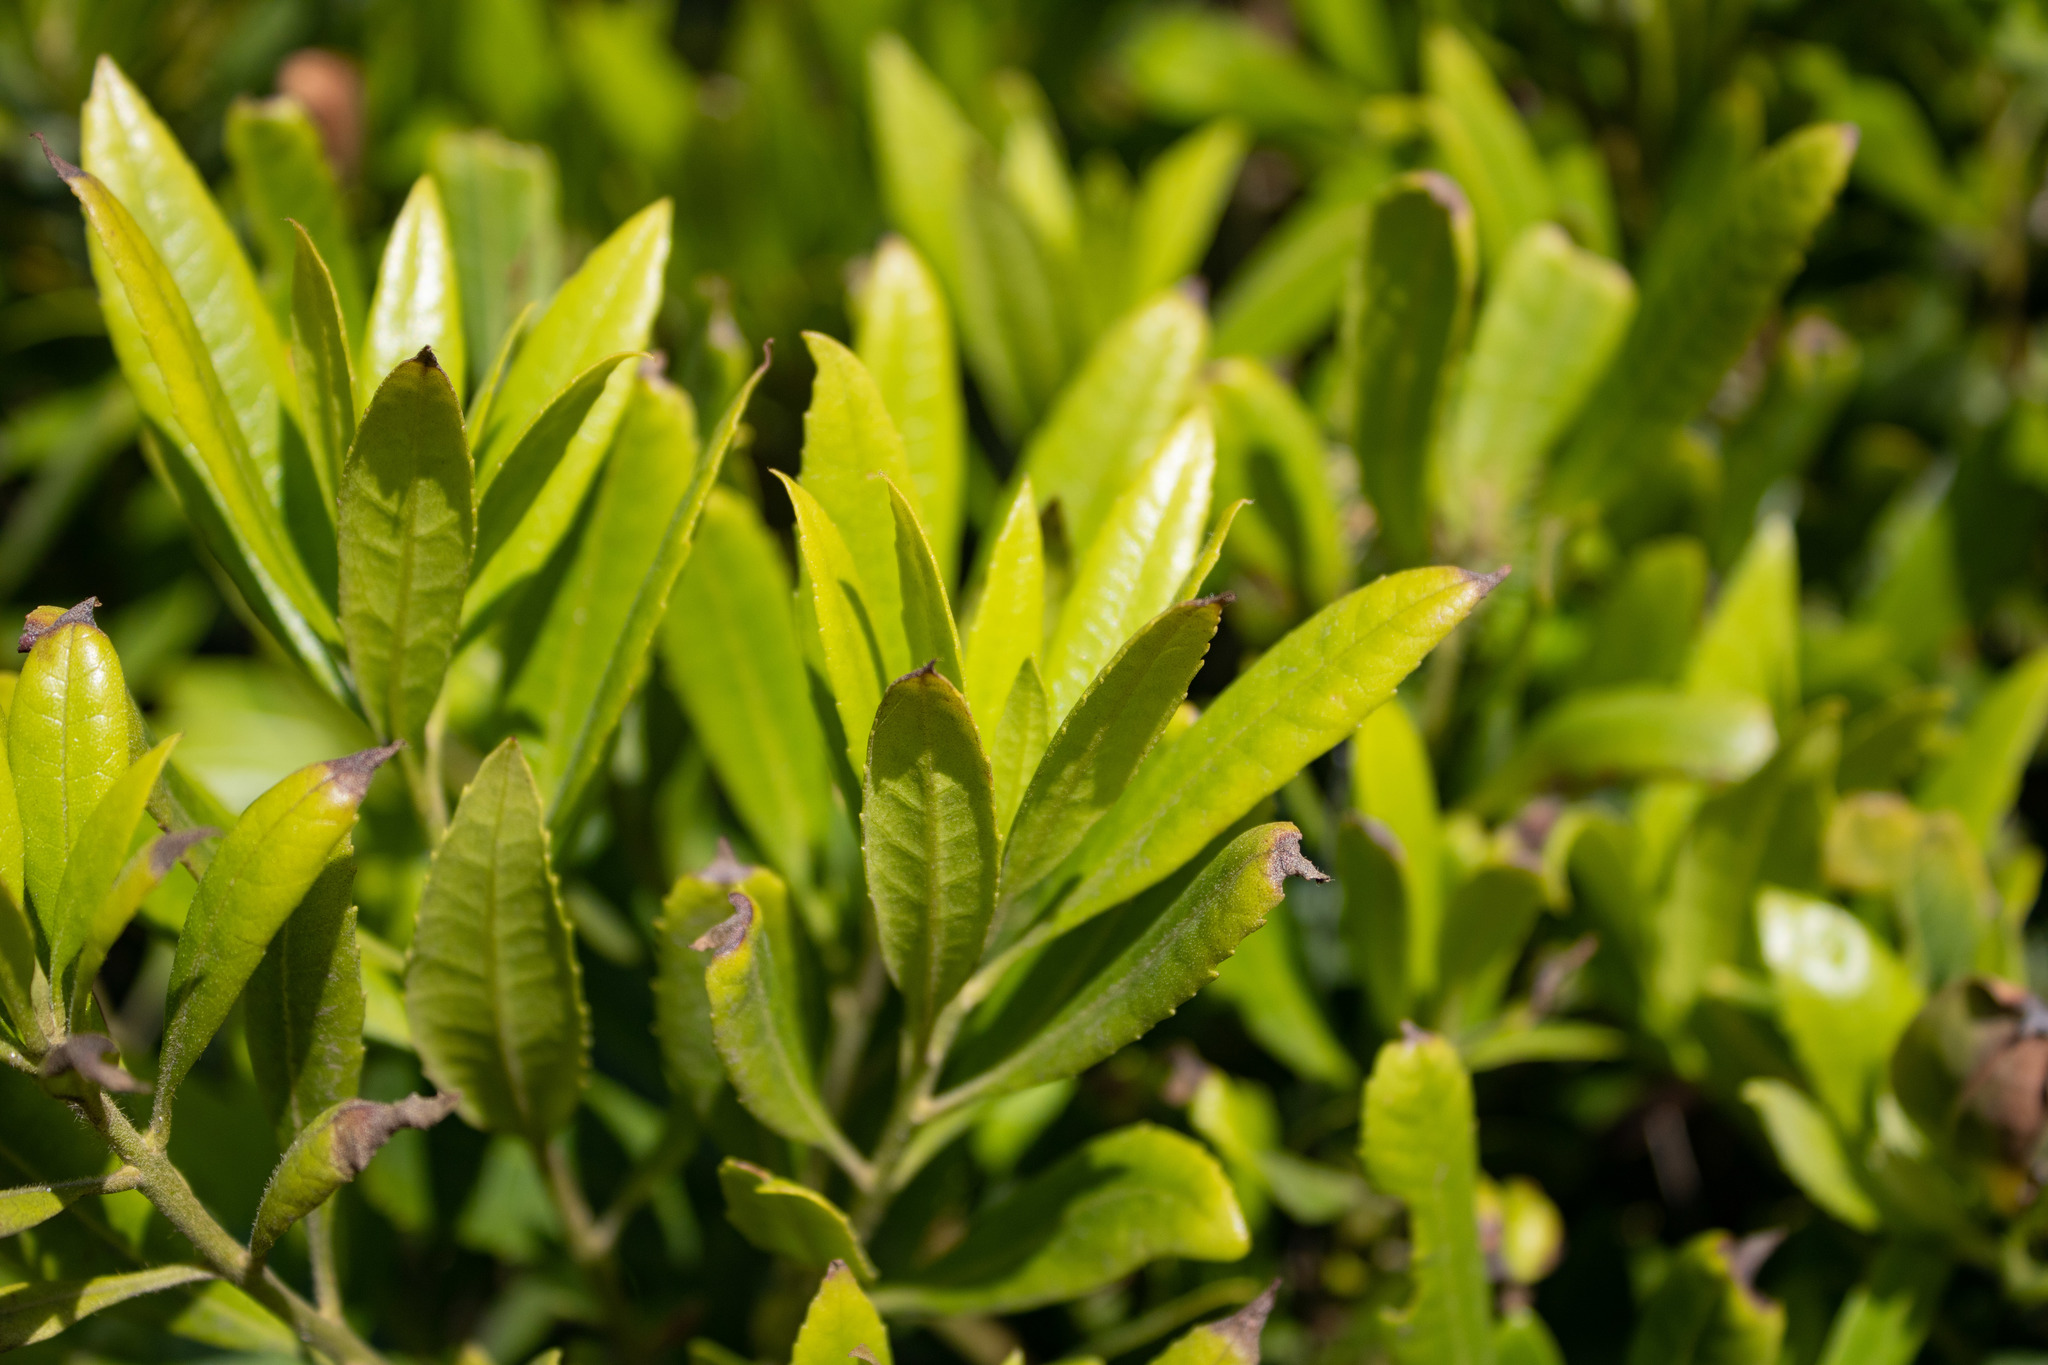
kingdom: Plantae
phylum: Tracheophyta
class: Magnoliopsida
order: Fagales
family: Myricaceae
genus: Morella
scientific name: Morella californica
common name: California wax-myrtle
